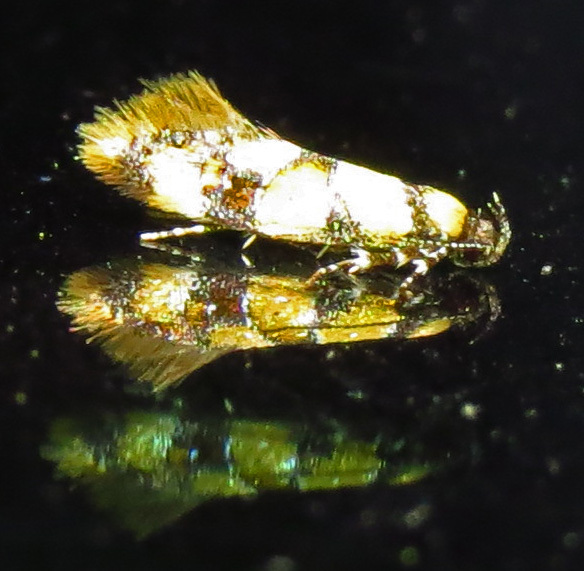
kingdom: Animalia
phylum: Arthropoda
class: Insecta
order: Lepidoptera
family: Oecophoridae
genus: Decantha
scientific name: Decantha borkhausenii
